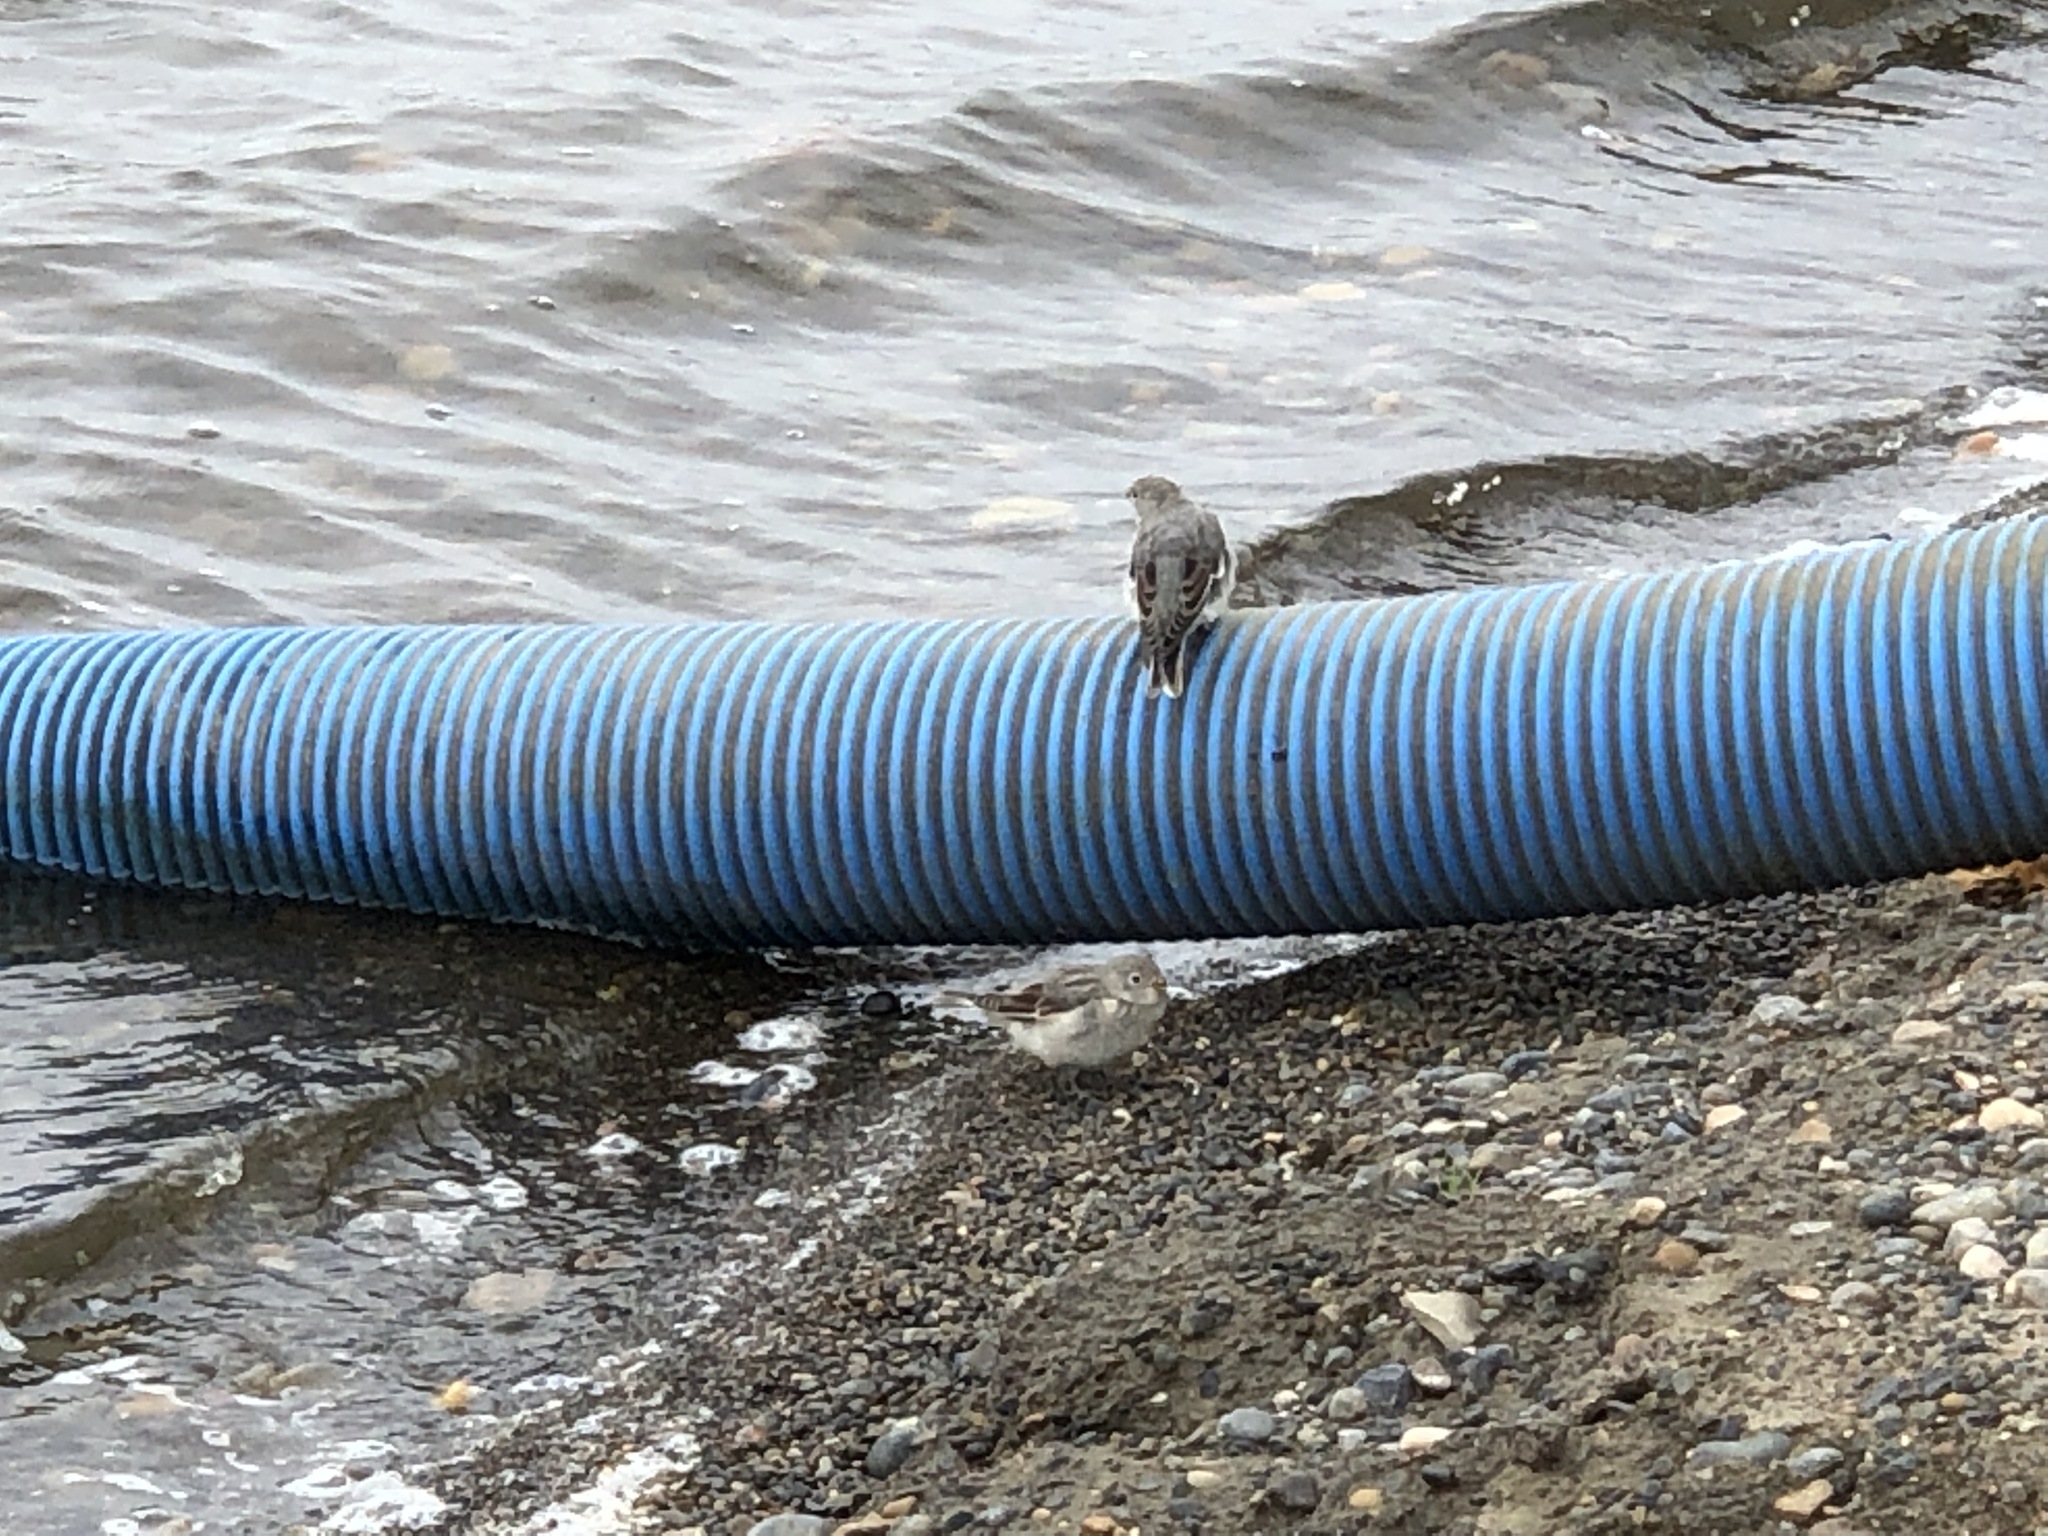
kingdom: Animalia
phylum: Chordata
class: Aves
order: Passeriformes
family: Calcariidae
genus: Plectrophenax
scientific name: Plectrophenax nivalis
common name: Snow bunting
